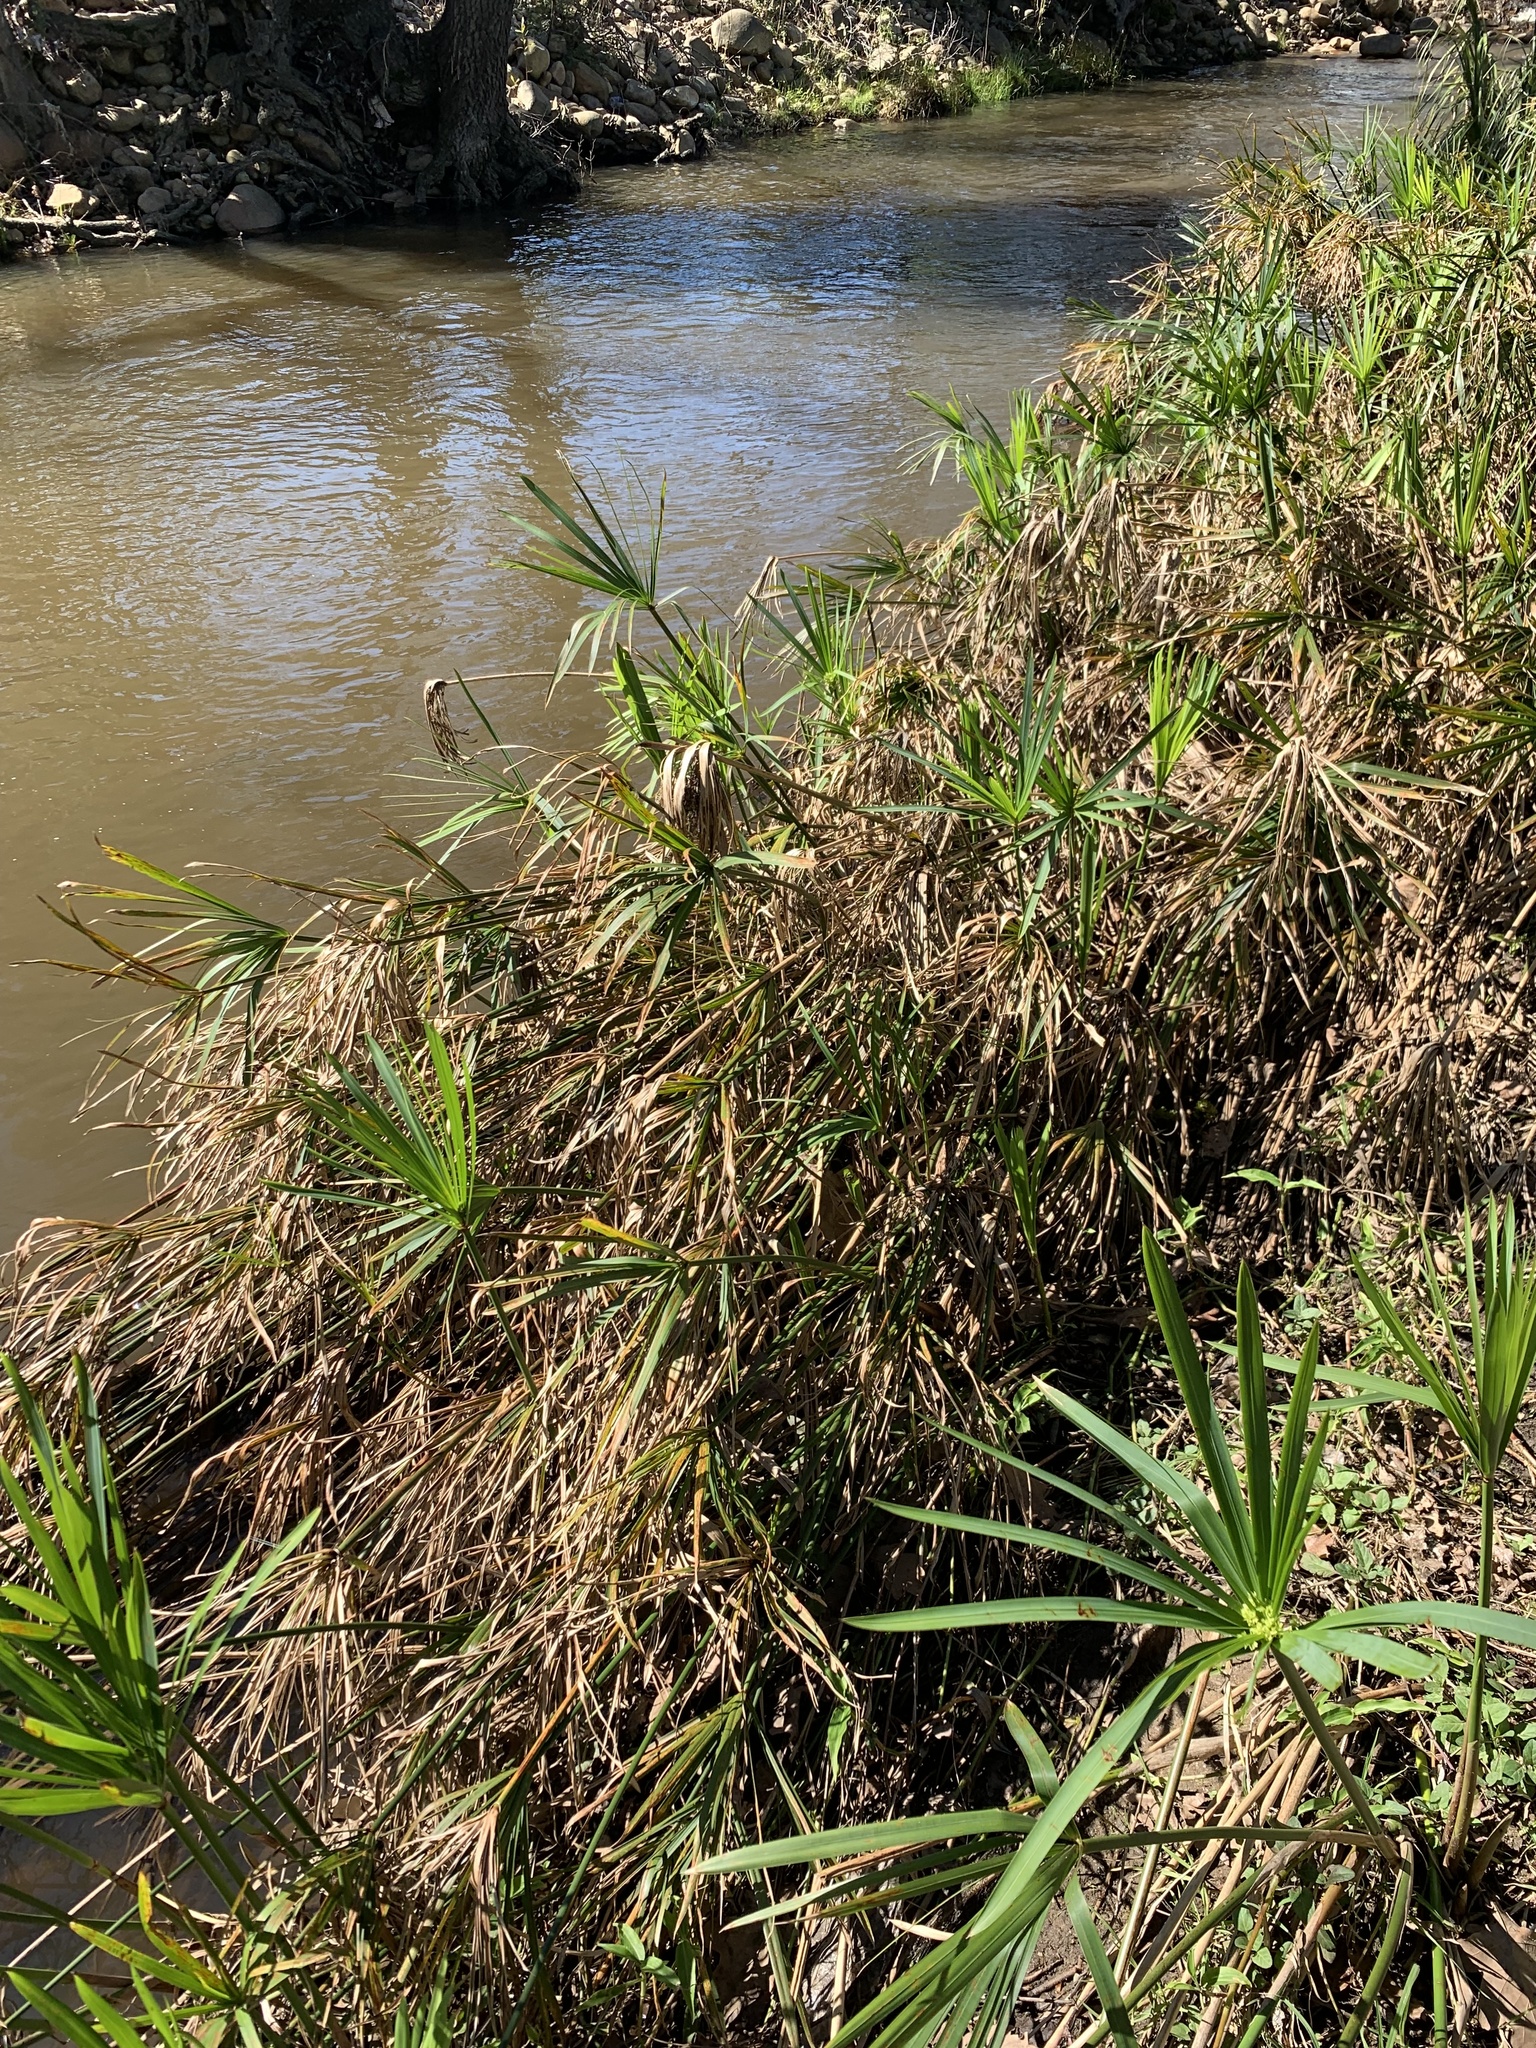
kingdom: Plantae
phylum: Tracheophyta
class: Liliopsida
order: Poales
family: Cyperaceae
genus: Cyperus
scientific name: Cyperus textilis
